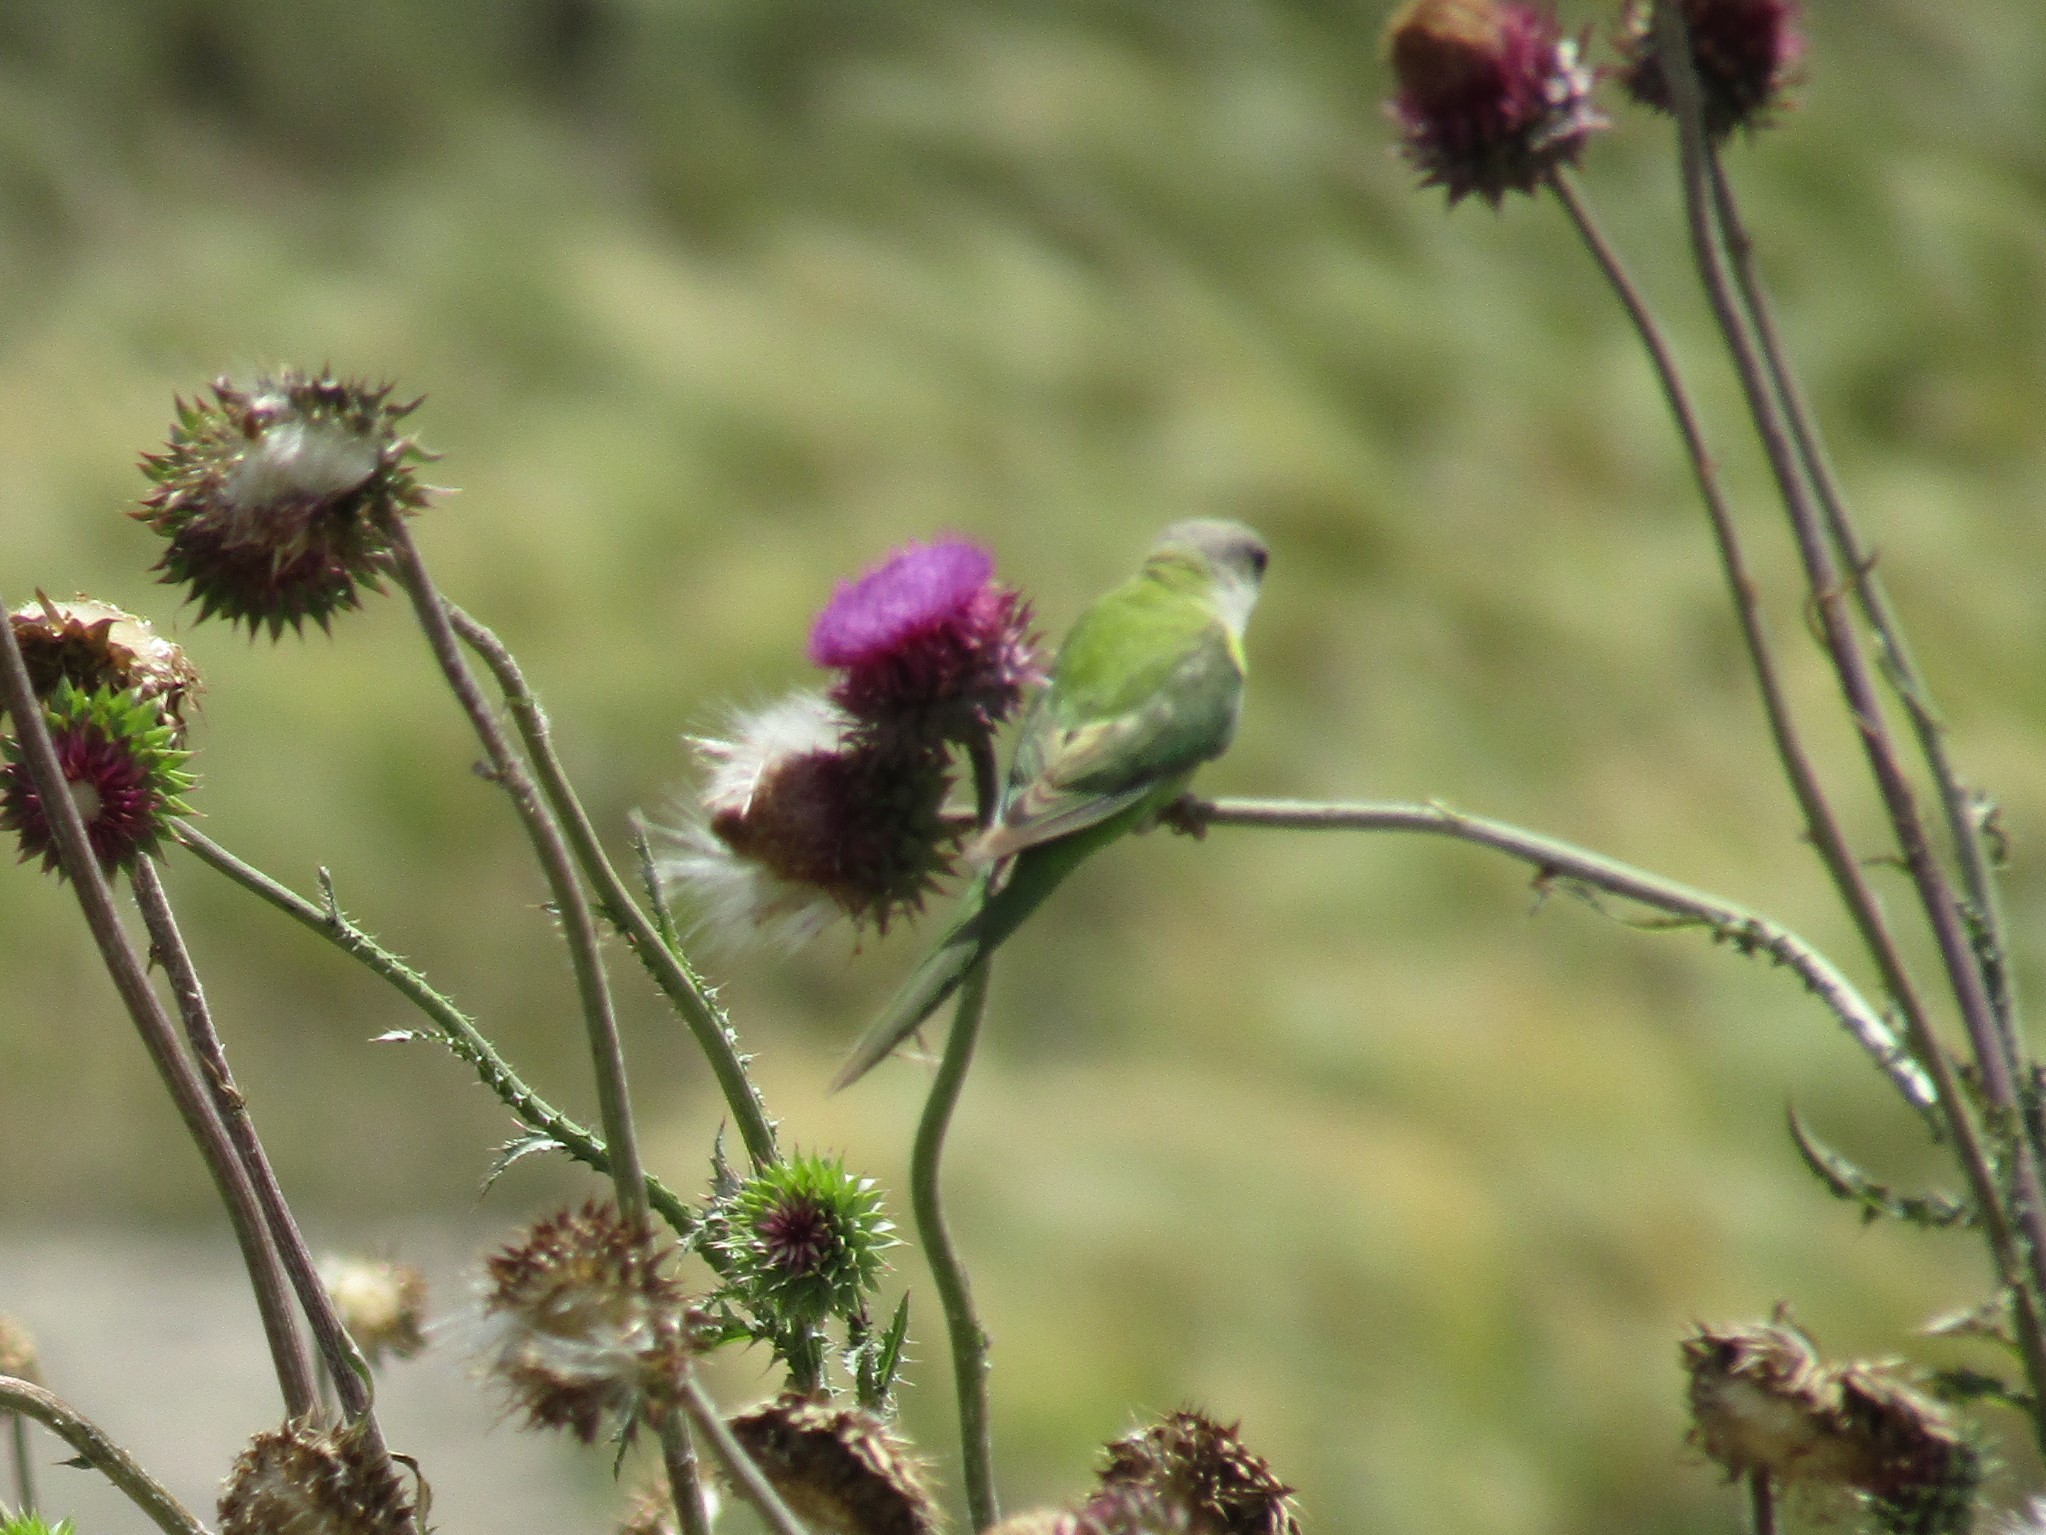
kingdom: Animalia
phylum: Chordata
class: Aves
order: Psittaciformes
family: Psittacidae
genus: Psilopsiagon
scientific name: Psilopsiagon aymara
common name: Grey-hooded parakeet
